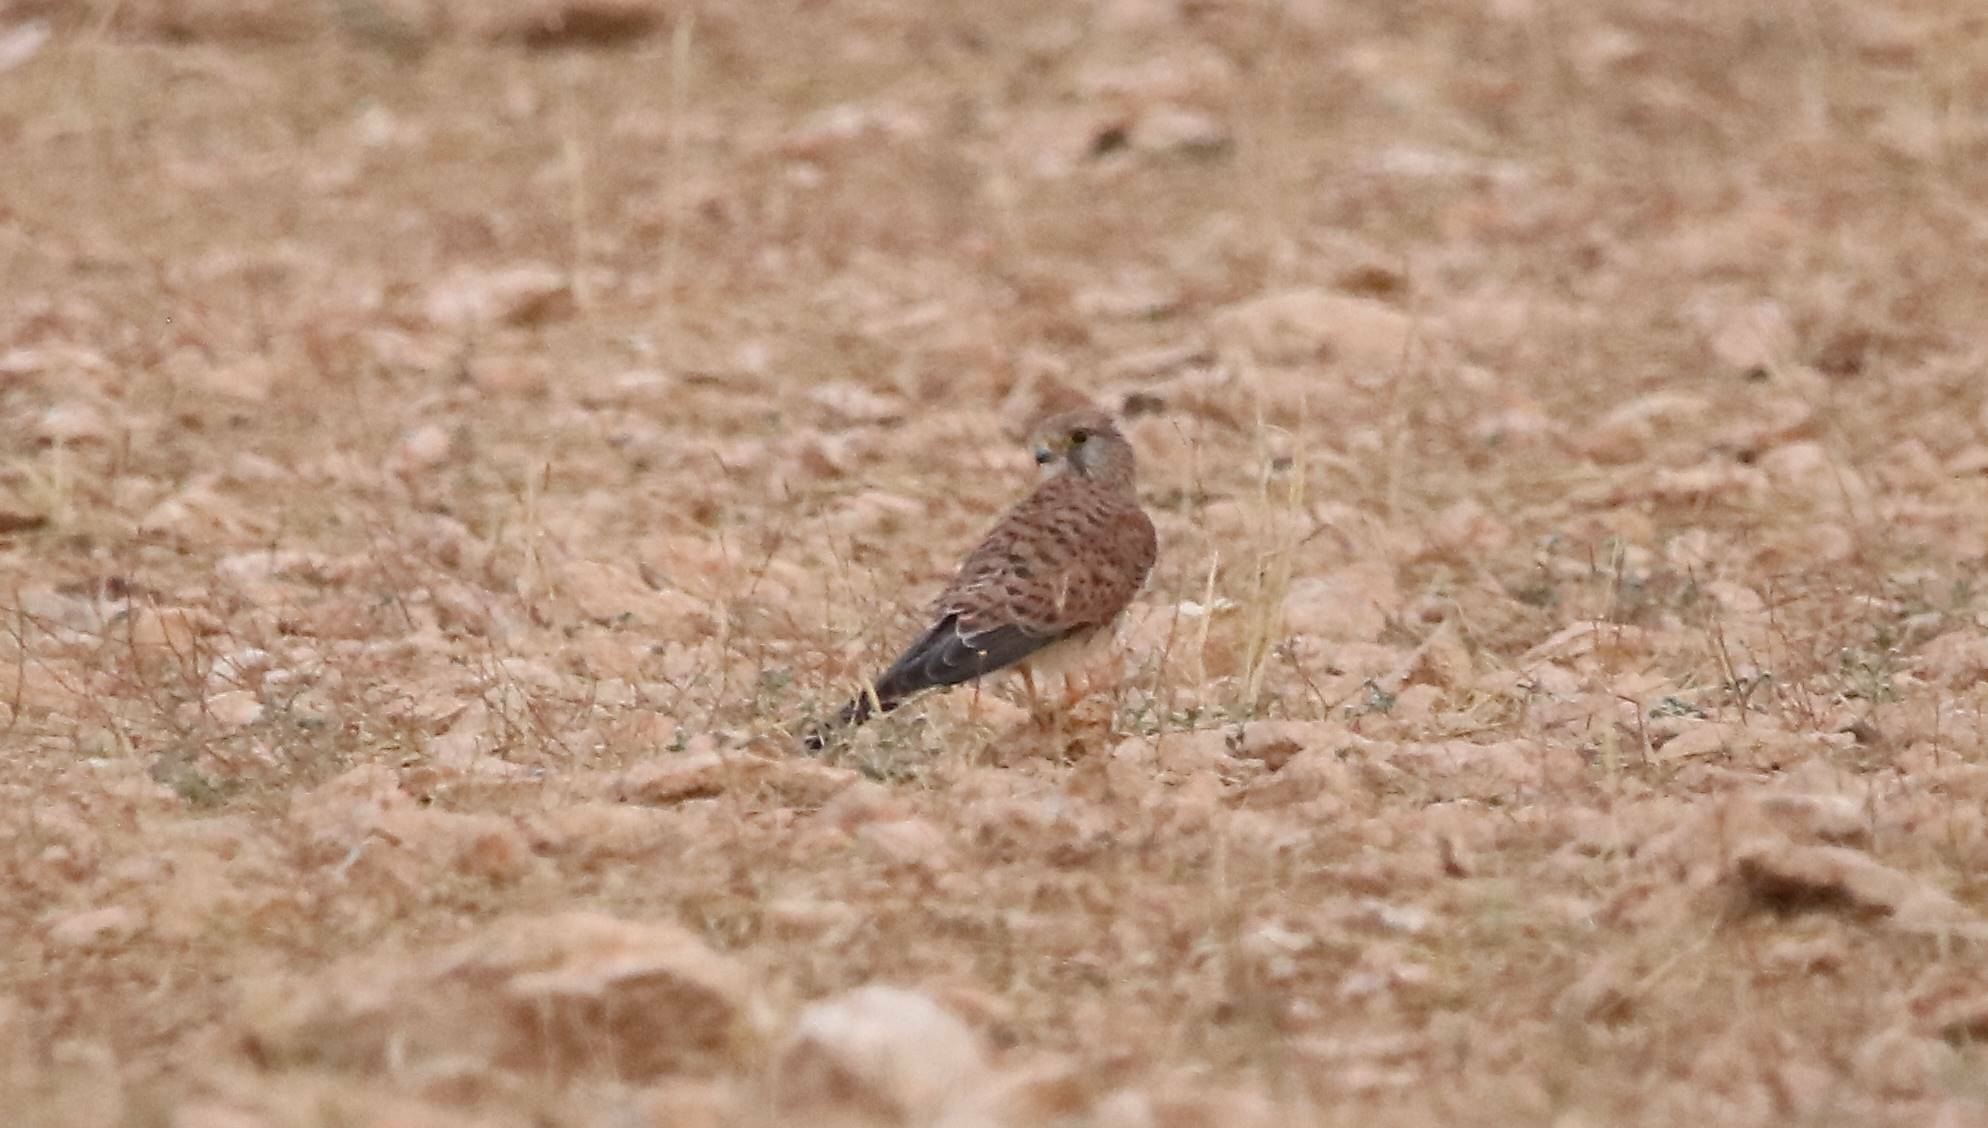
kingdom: Animalia
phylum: Chordata
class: Aves
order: Falconiformes
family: Falconidae
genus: Falco
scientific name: Falco tinnunculus
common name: Common kestrel
